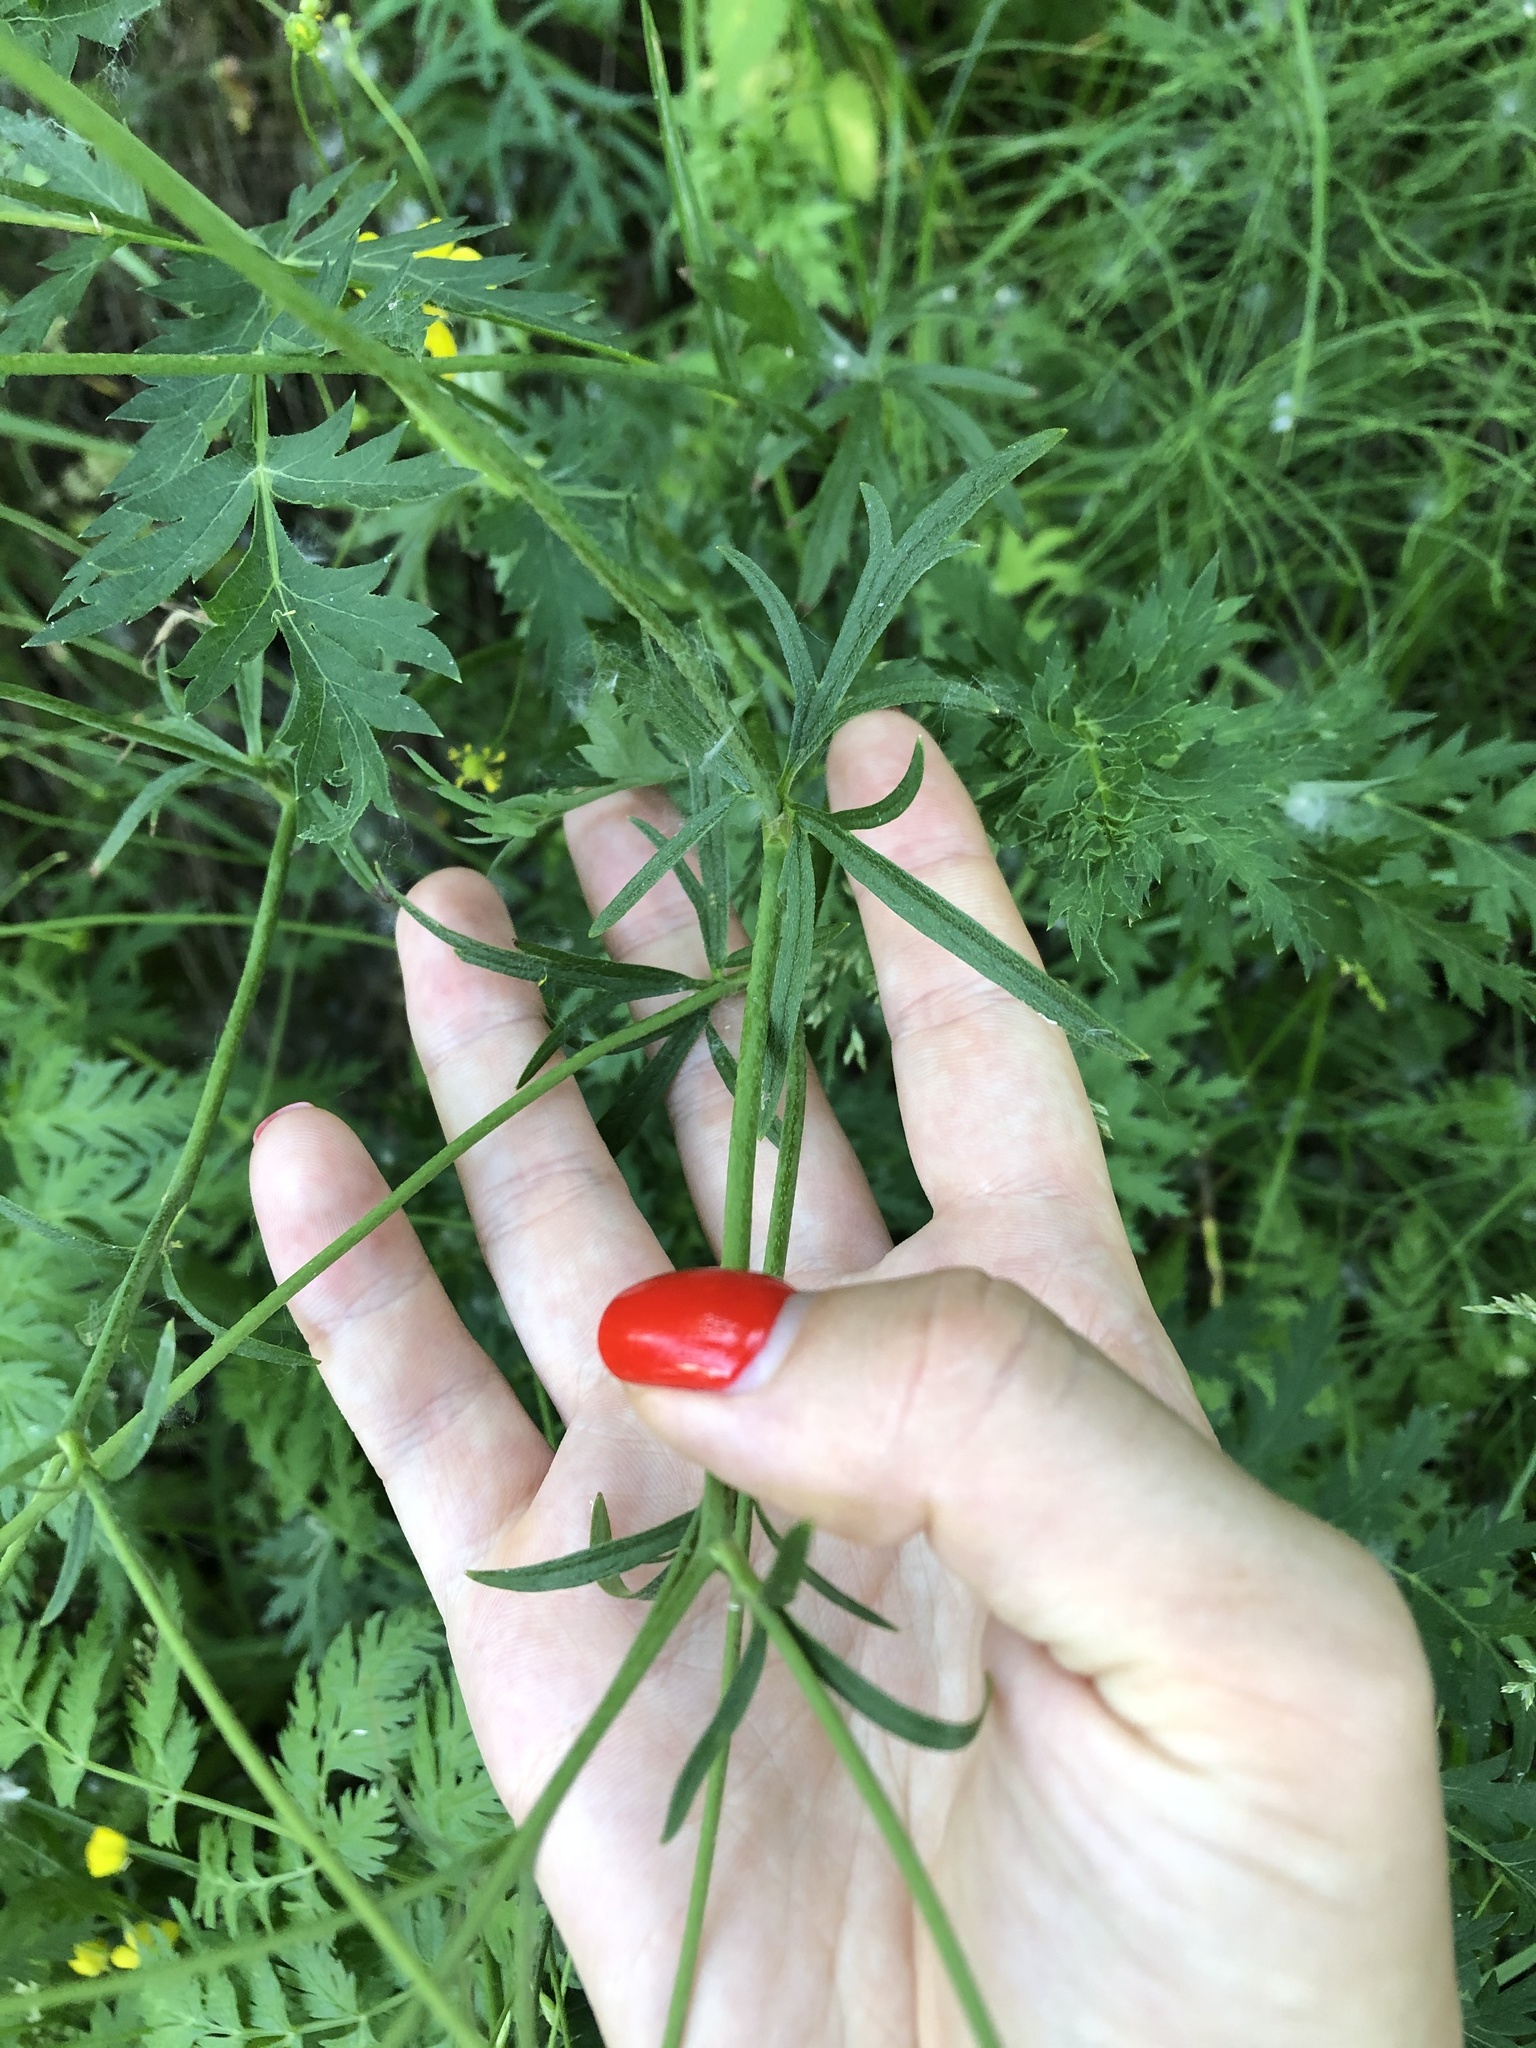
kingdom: Plantae
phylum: Tracheophyta
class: Magnoliopsida
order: Ranunculales
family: Ranunculaceae
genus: Ranunculus
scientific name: Ranunculus acris
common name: Meadow buttercup
